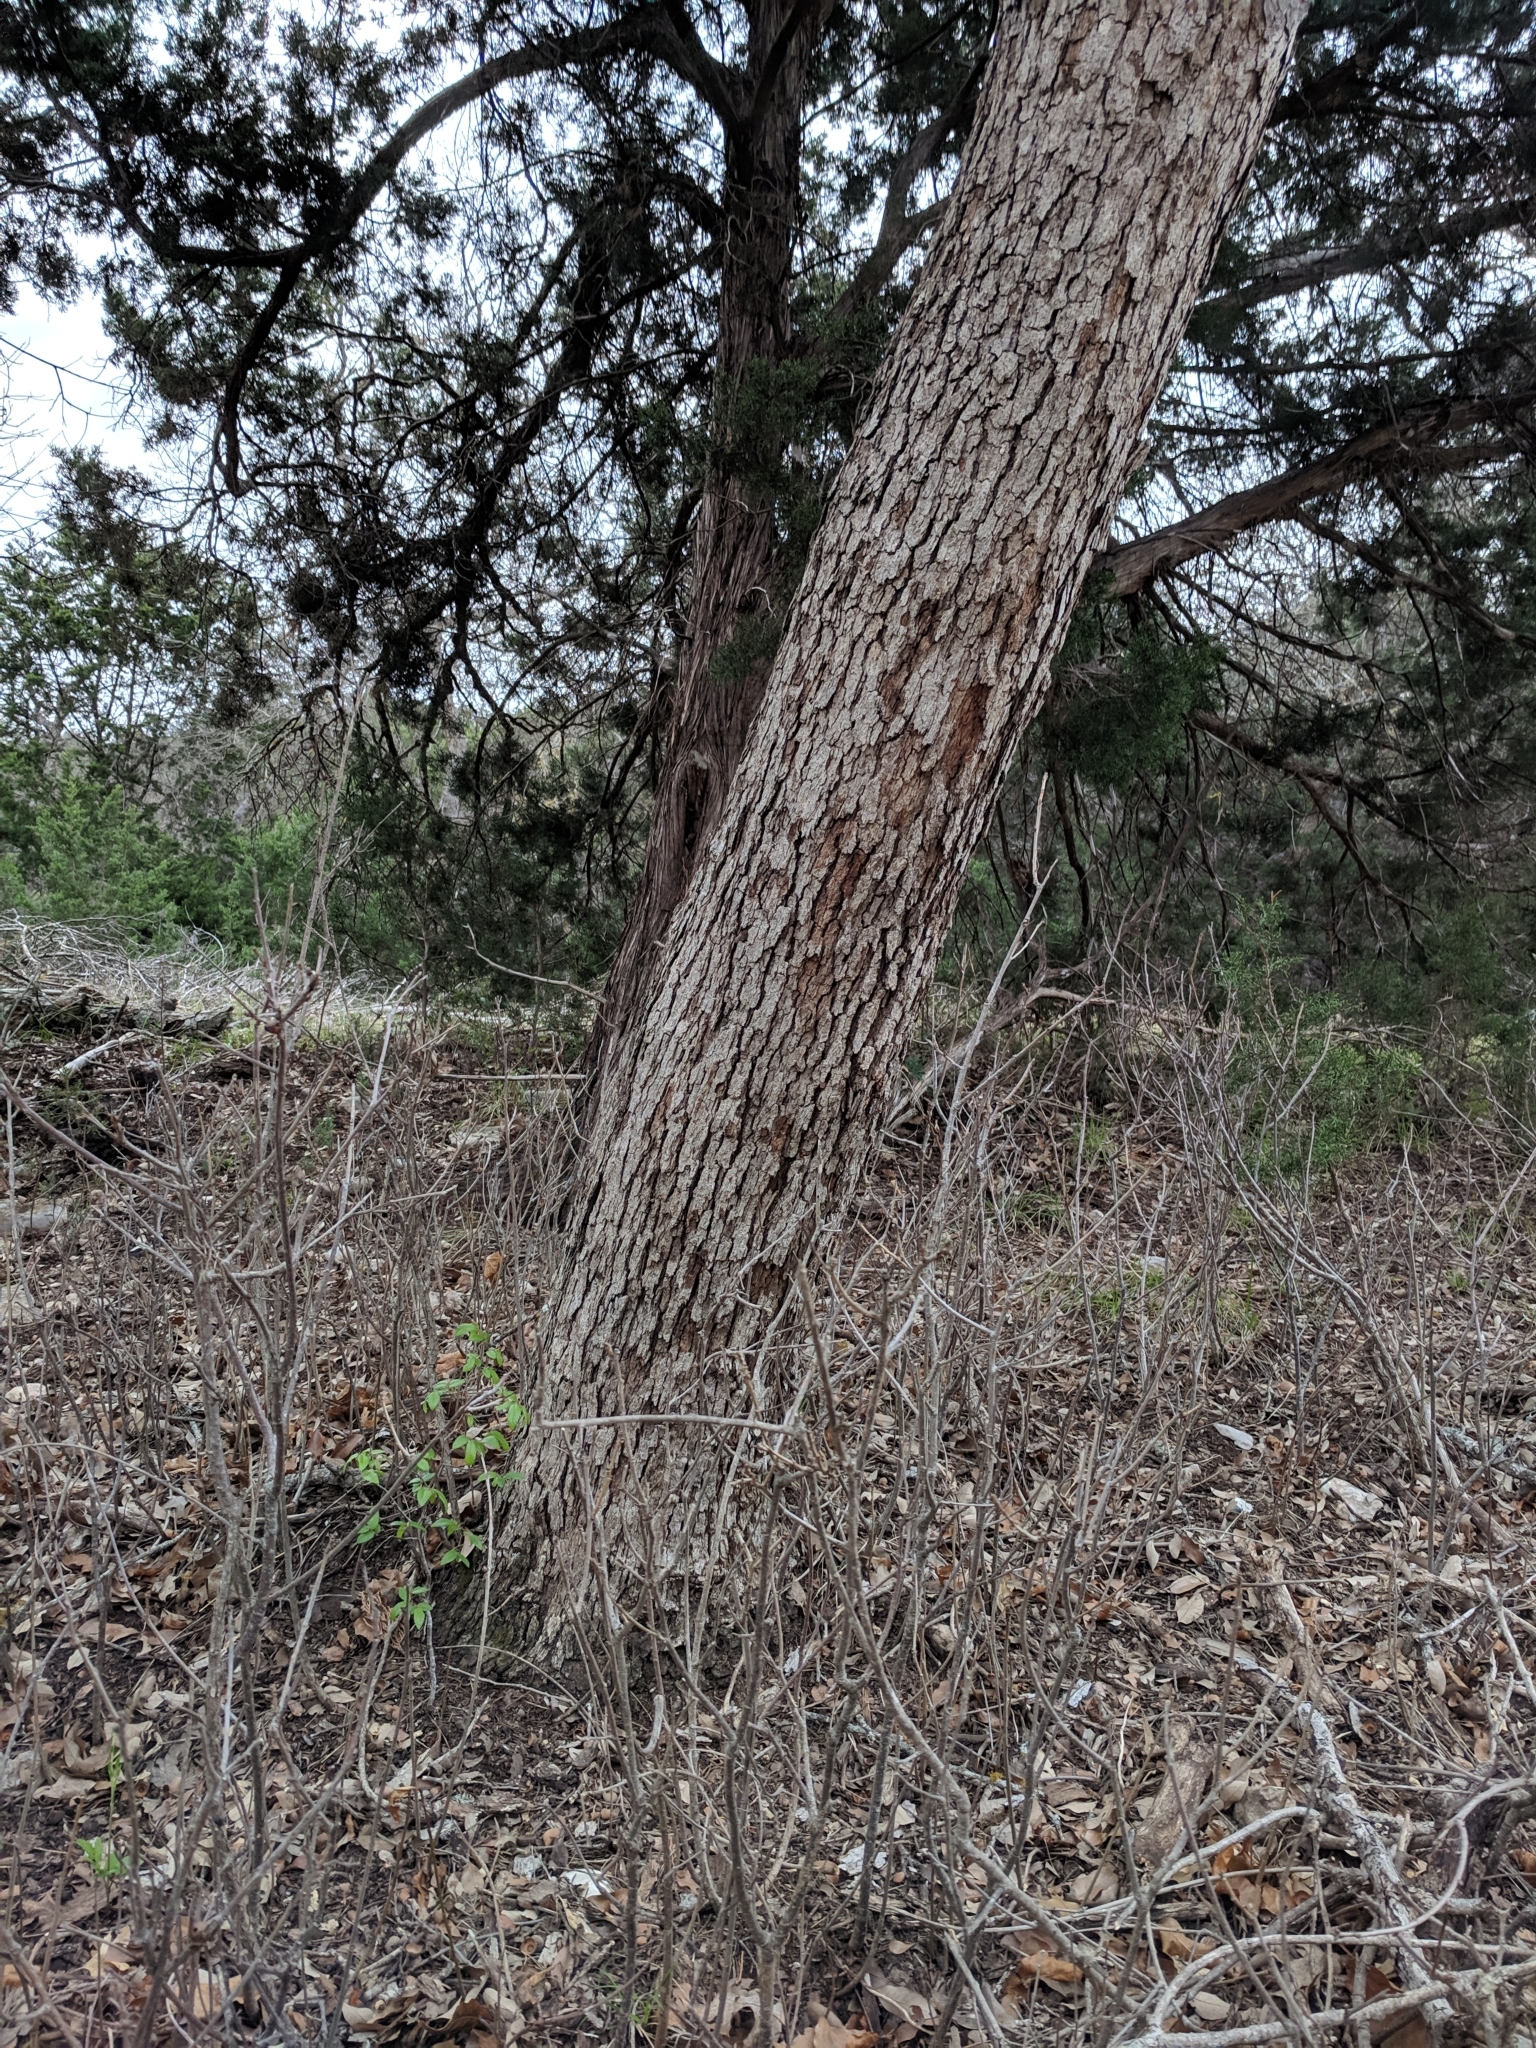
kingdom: Plantae
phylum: Tracheophyta
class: Magnoliopsida
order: Fagales
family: Fagaceae
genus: Quercus
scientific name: Quercus sinuata
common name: Durand oak
